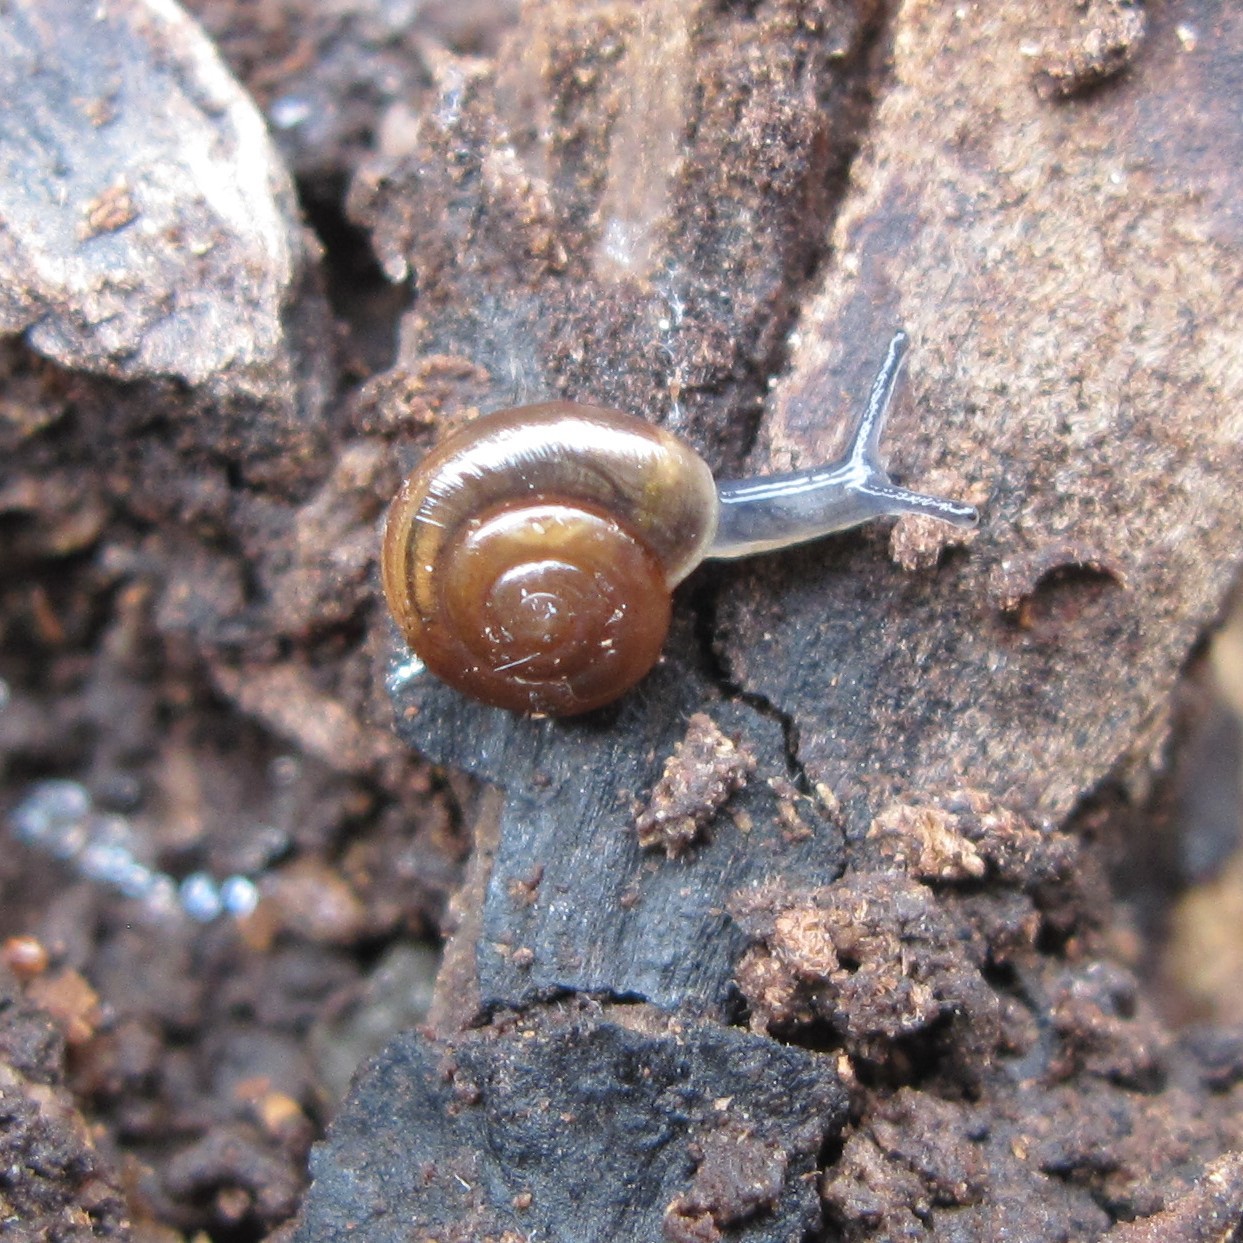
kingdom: Animalia
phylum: Mollusca
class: Gastropoda
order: Stylommatophora
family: Oxychilidae
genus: Oxychilus
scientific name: Oxychilus
